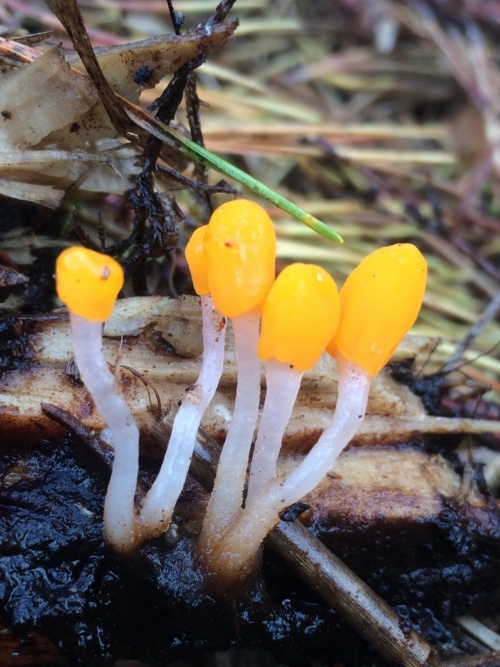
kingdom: Fungi
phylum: Ascomycota
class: Leotiomycetes
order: Helotiales
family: Cenangiaceae
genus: Mitrula
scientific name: Mitrula paludosa
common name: Bog beacon
